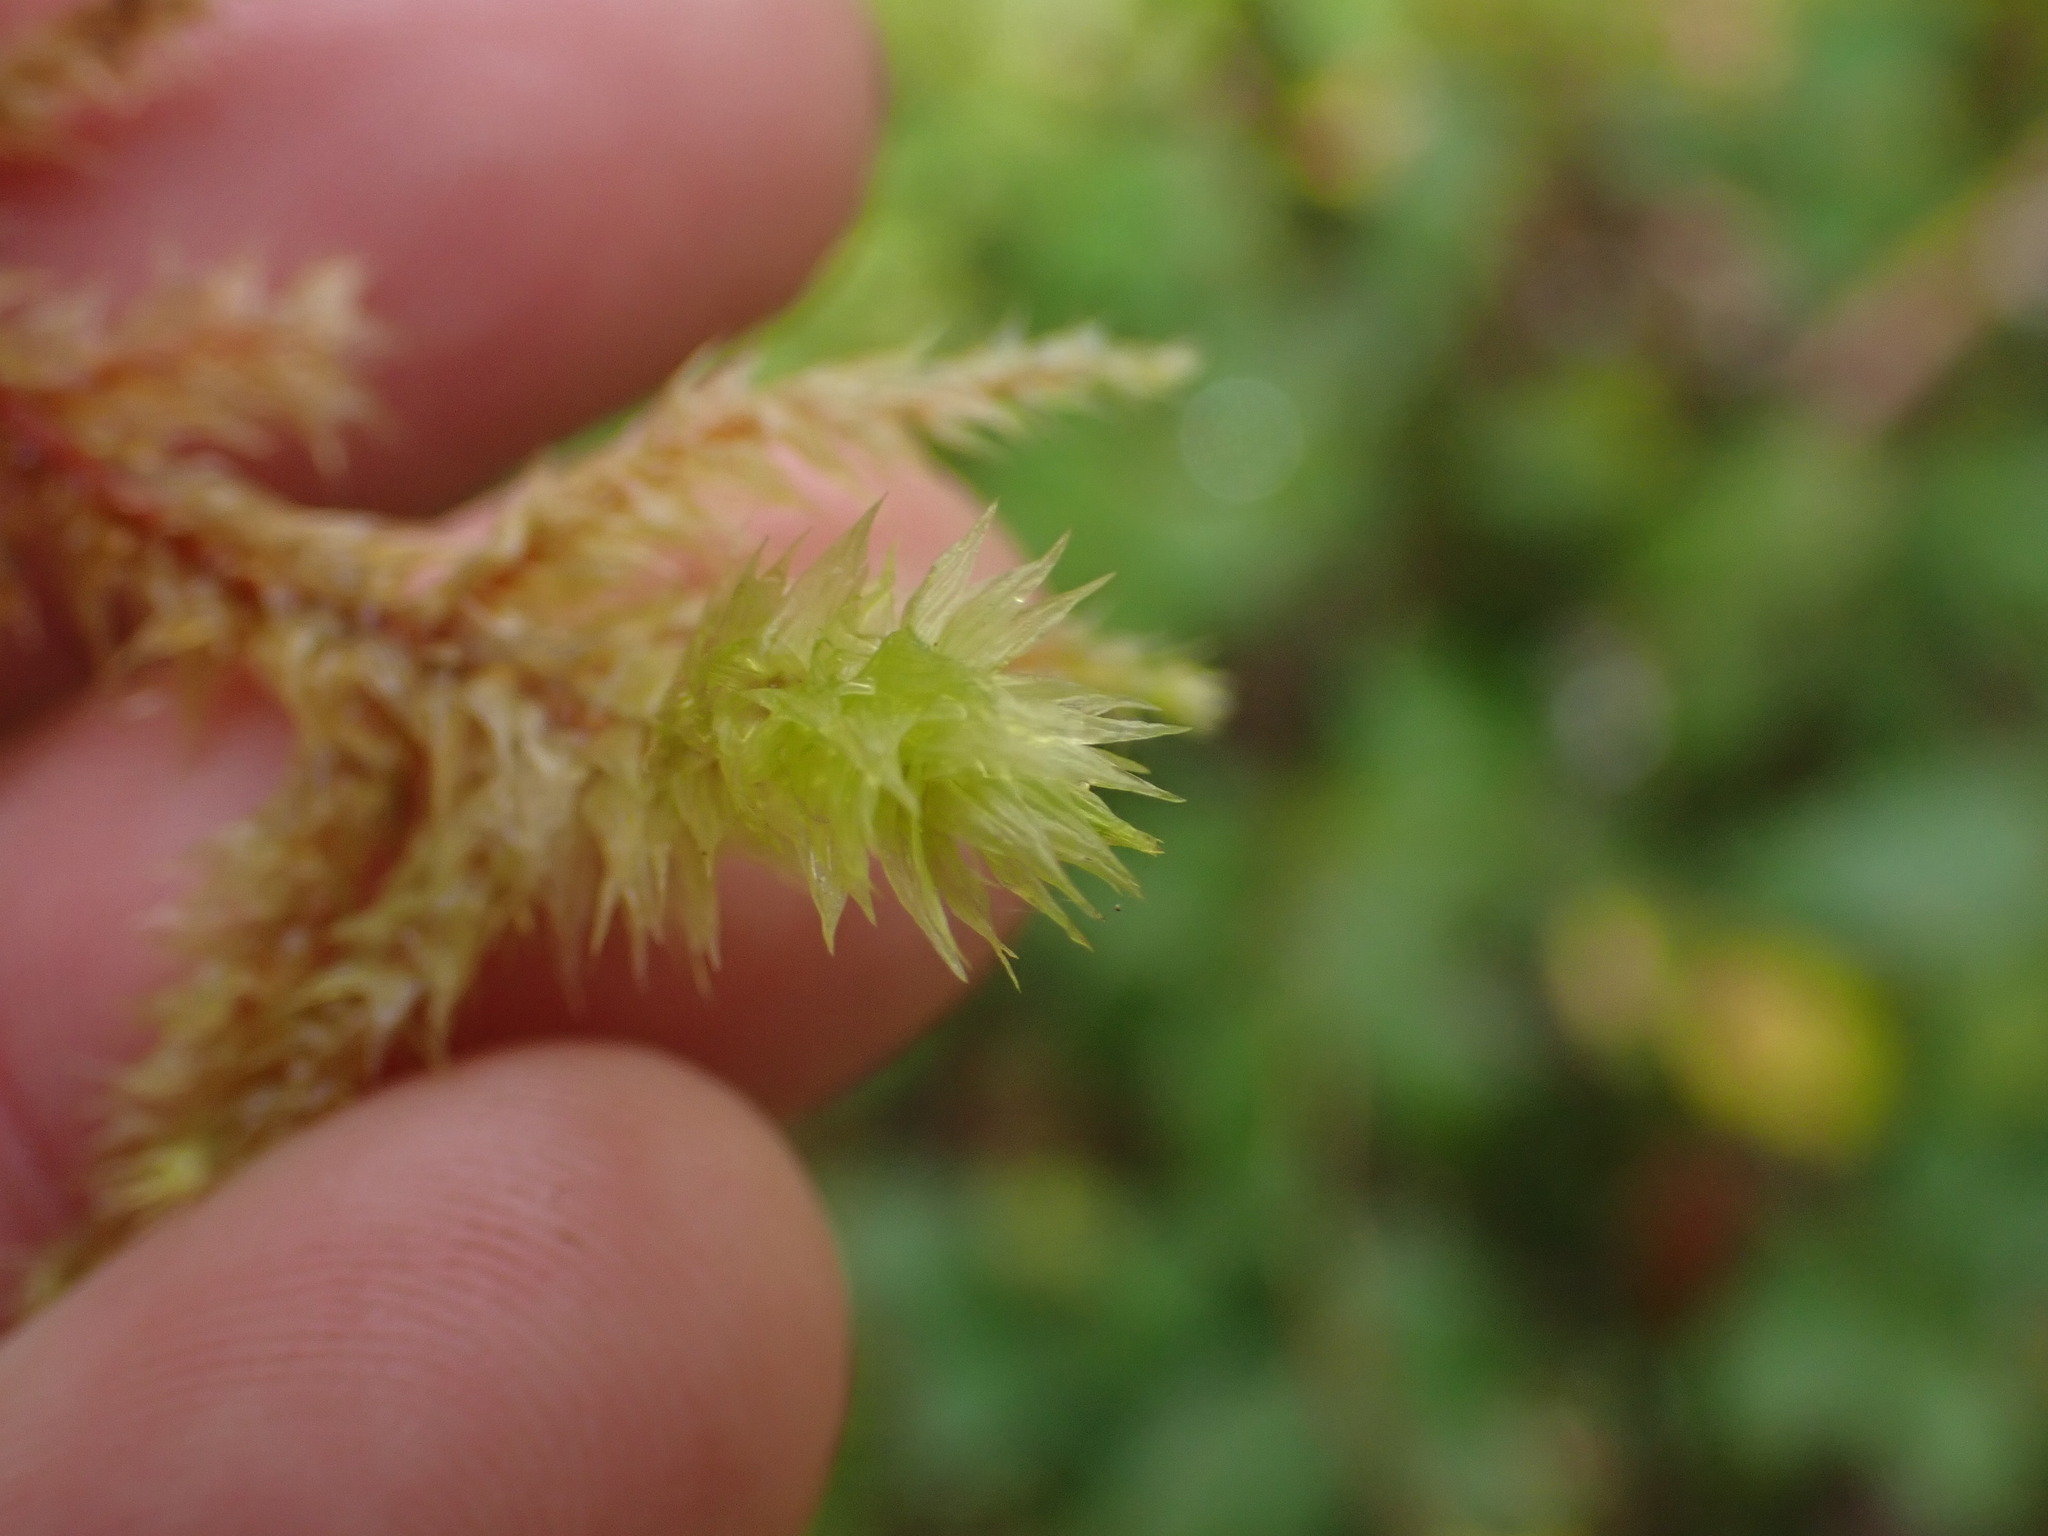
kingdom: Plantae
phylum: Bryophyta
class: Bryopsida
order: Hypnales
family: Hylocomiaceae
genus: Hylocomiadelphus
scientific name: Hylocomiadelphus triquetrus
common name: Rough goose neck moss
